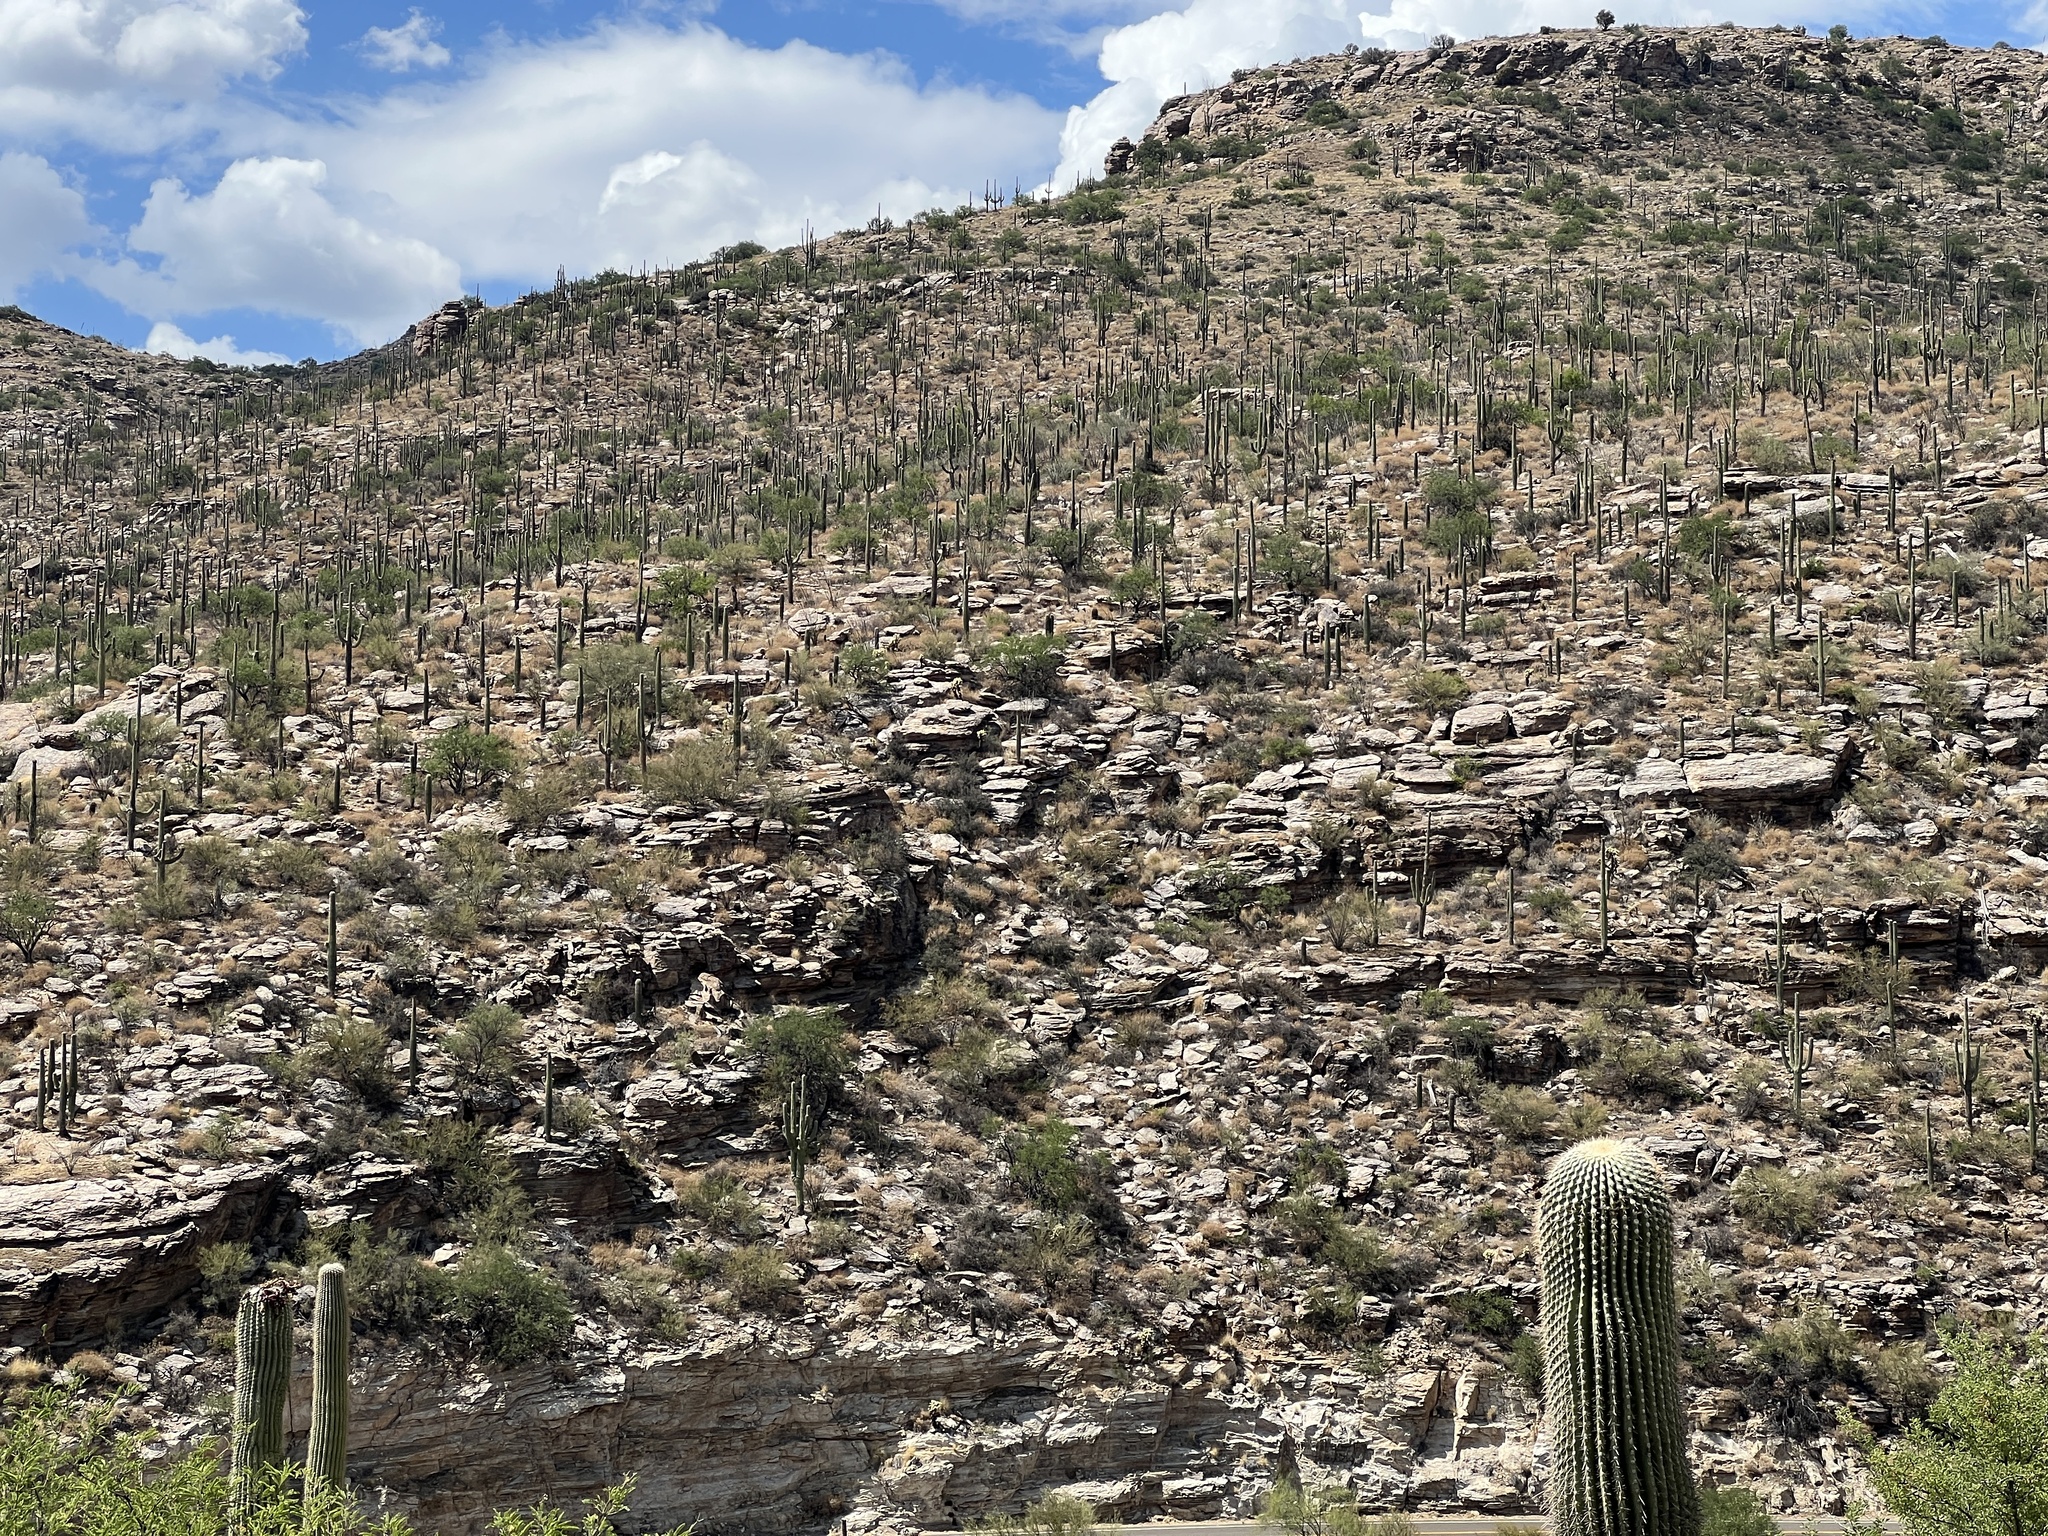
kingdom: Plantae
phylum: Tracheophyta
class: Magnoliopsida
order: Caryophyllales
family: Cactaceae
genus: Carnegiea
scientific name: Carnegiea gigantea
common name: Saguaro
